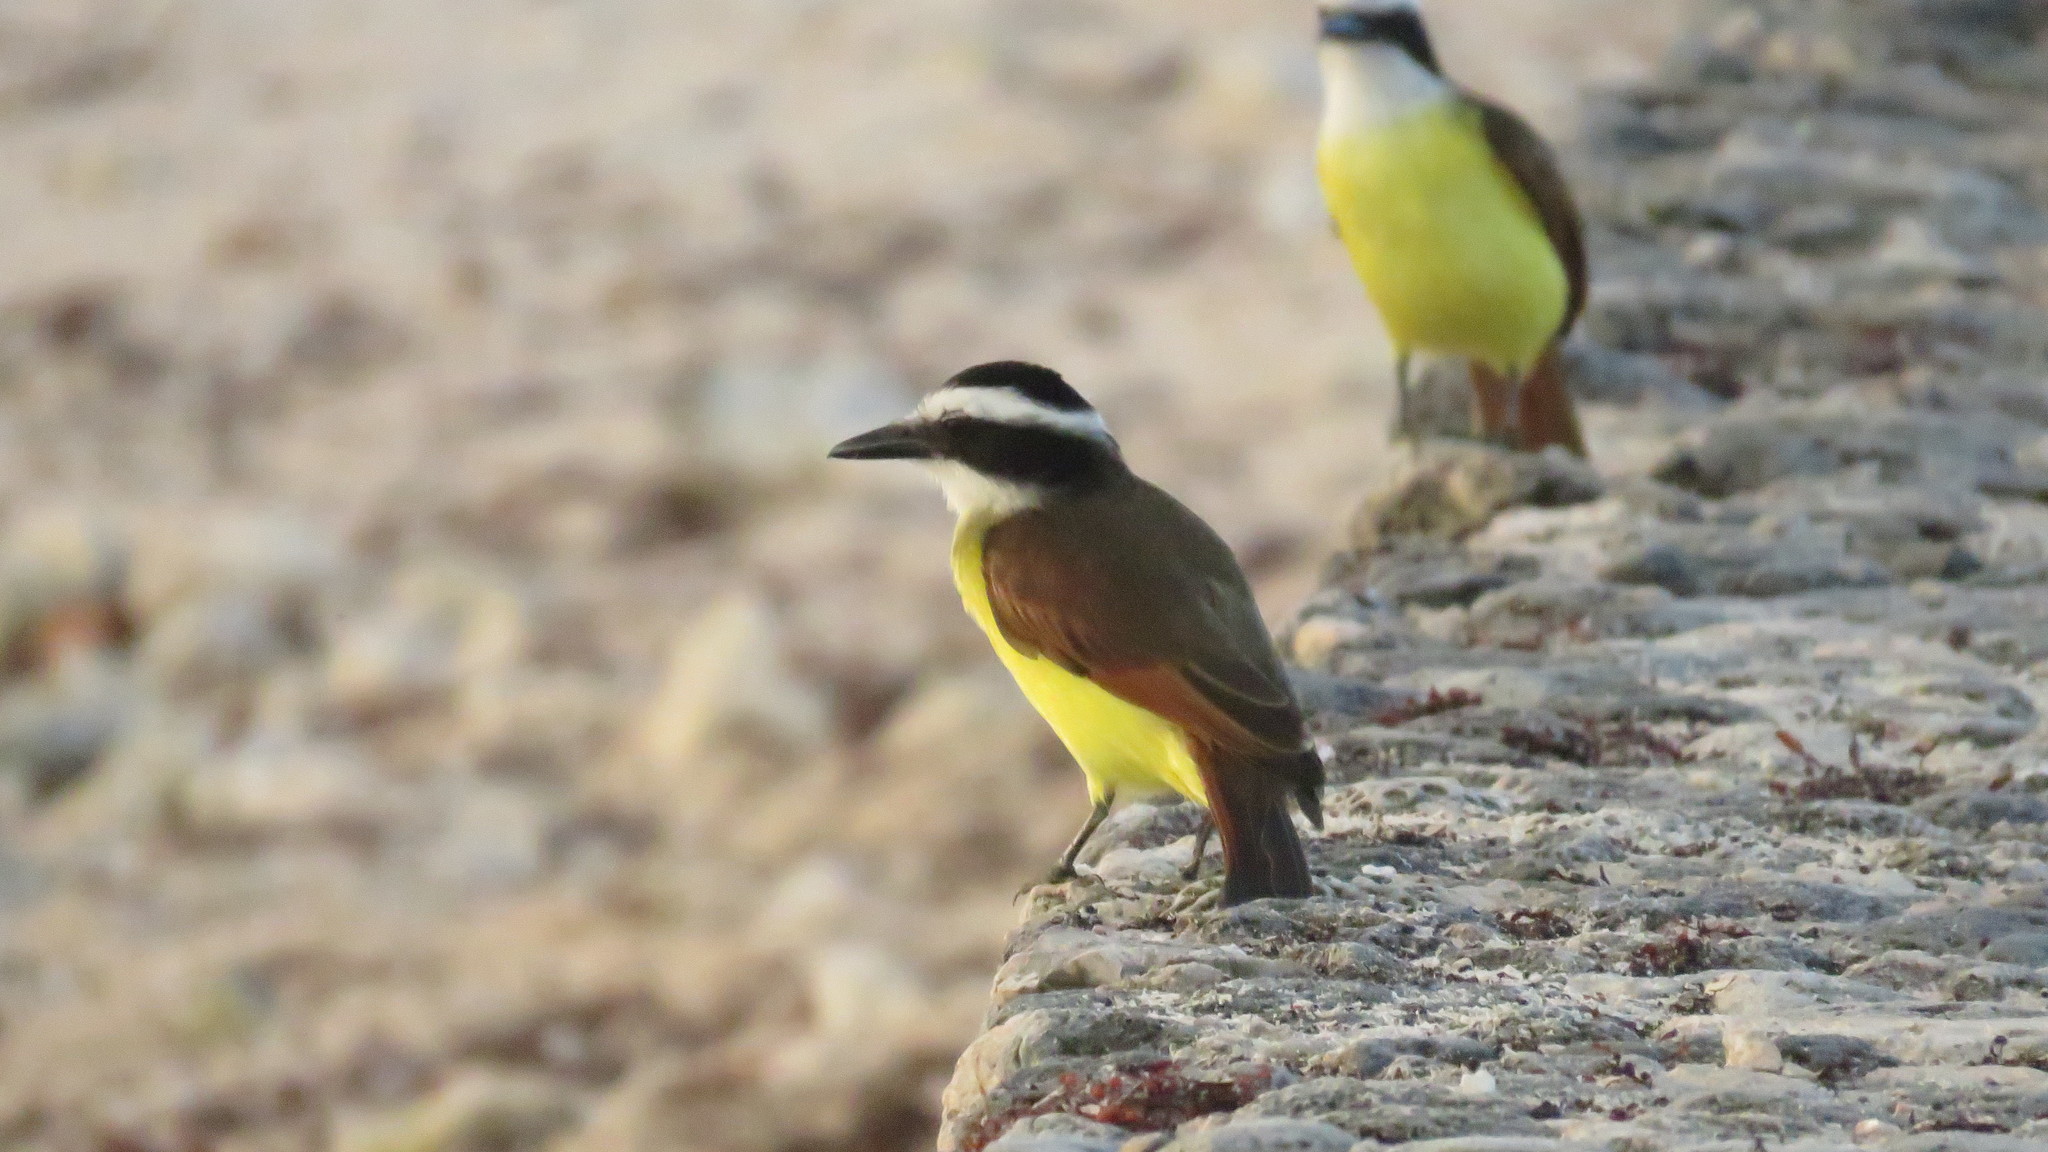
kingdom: Animalia
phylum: Chordata
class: Aves
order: Passeriformes
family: Tyrannidae
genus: Pitangus
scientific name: Pitangus sulphuratus
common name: Great kiskadee
